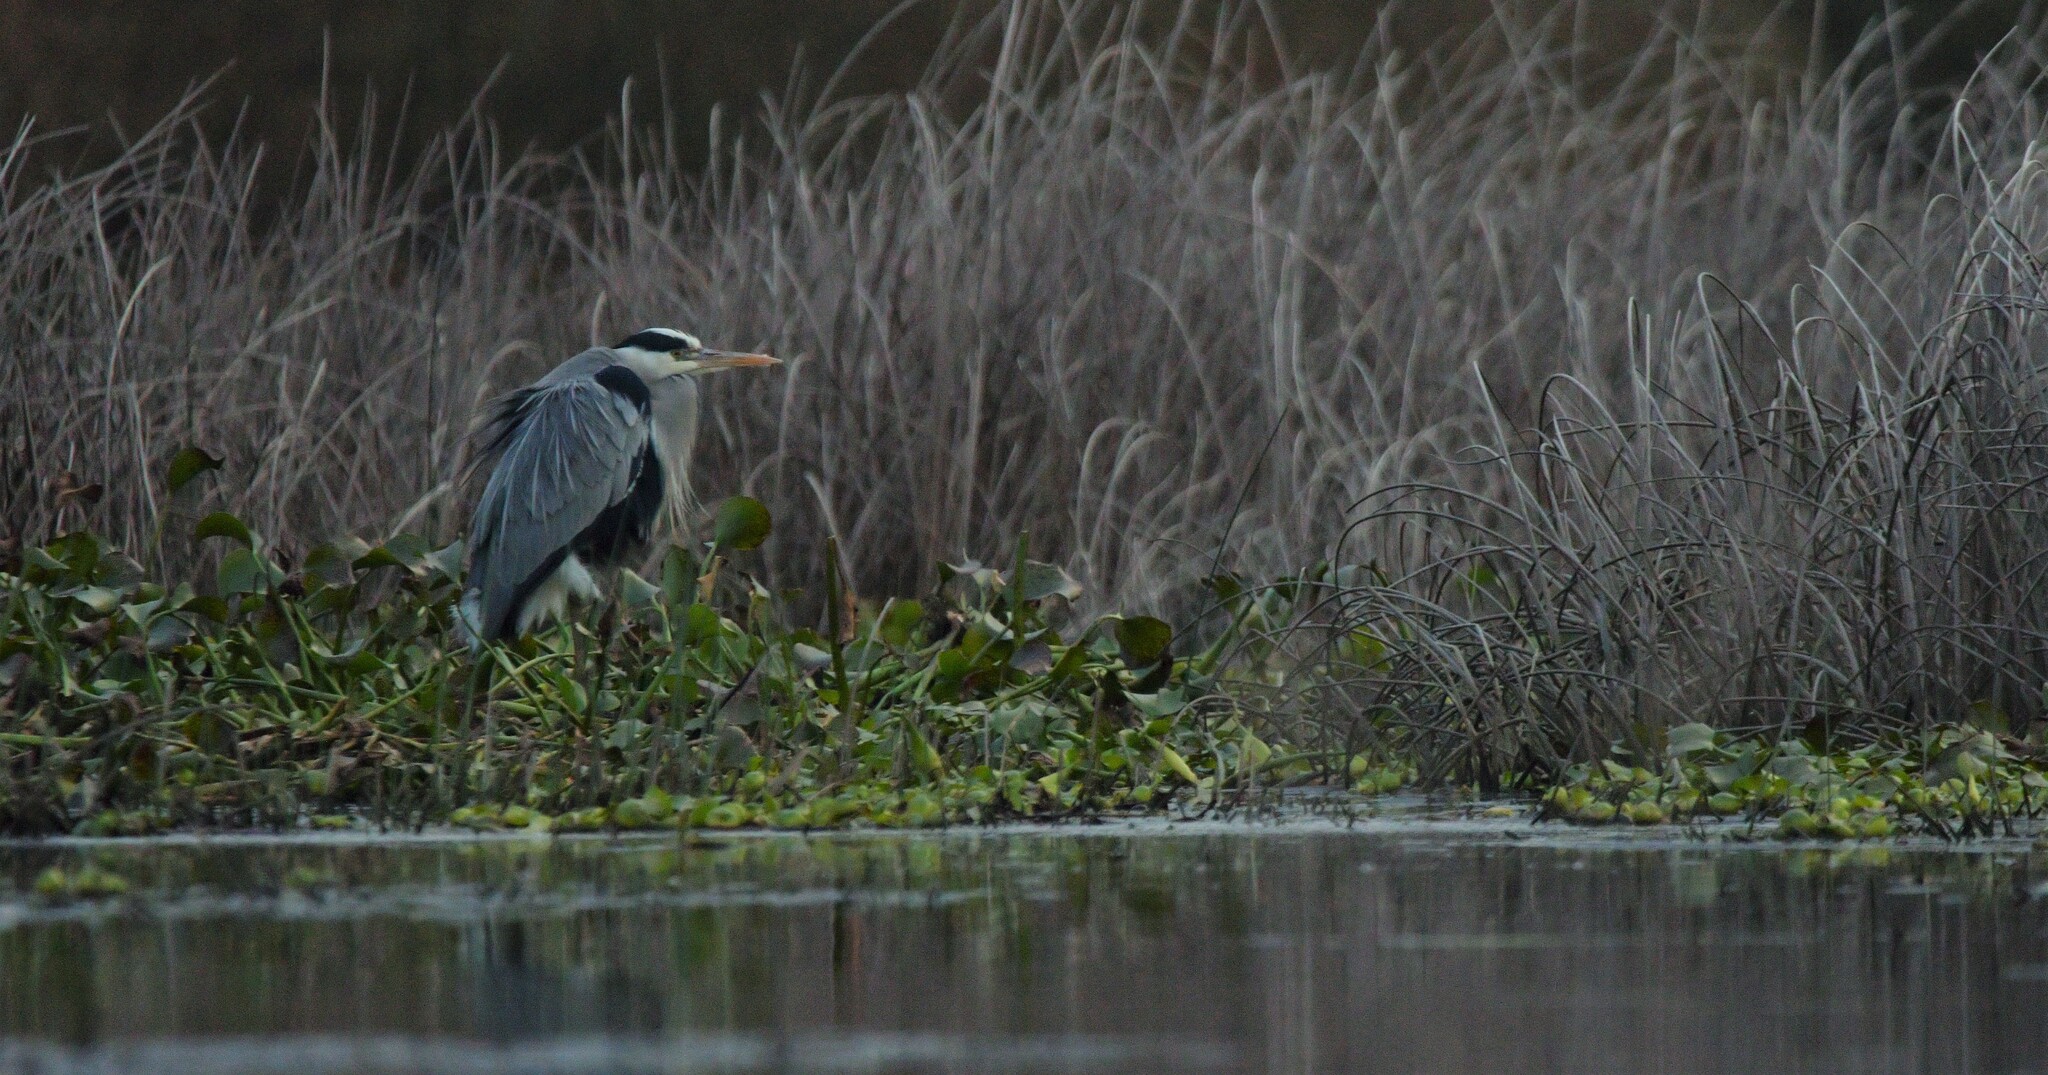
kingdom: Animalia
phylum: Chordata
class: Aves
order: Pelecaniformes
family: Ardeidae
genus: Ardea
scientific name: Ardea cinerea
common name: Grey heron
